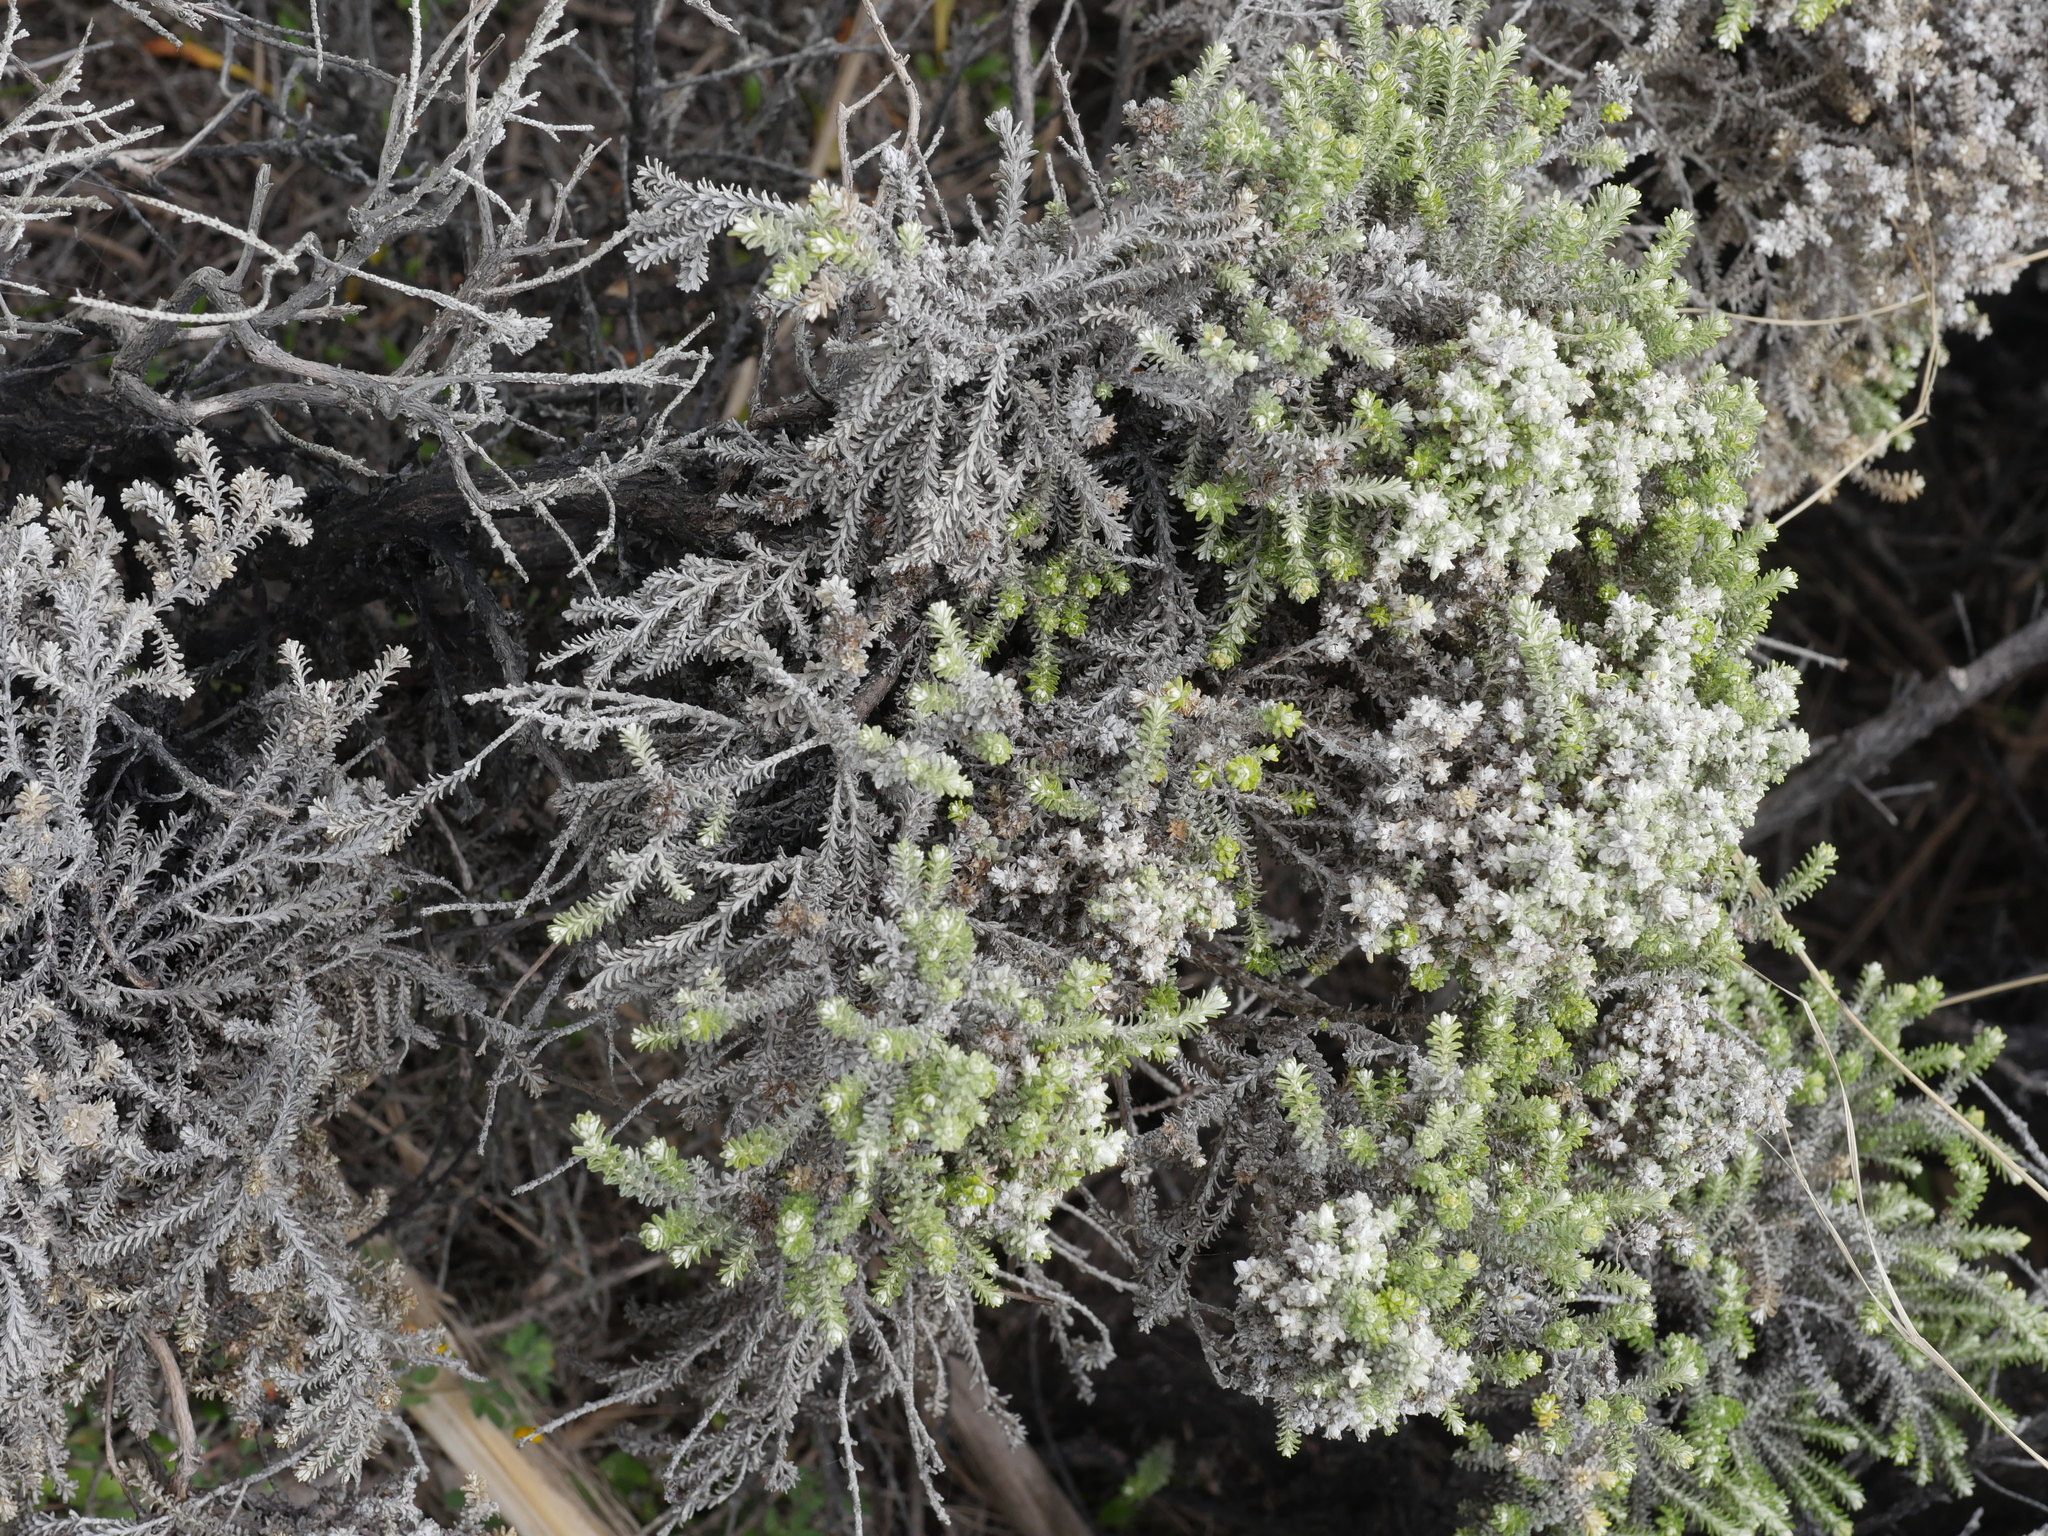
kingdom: Plantae
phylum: Tracheophyta
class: Magnoliopsida
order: Asterales
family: Asteraceae
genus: Ozothamnus
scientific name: Ozothamnus leptophyllus
